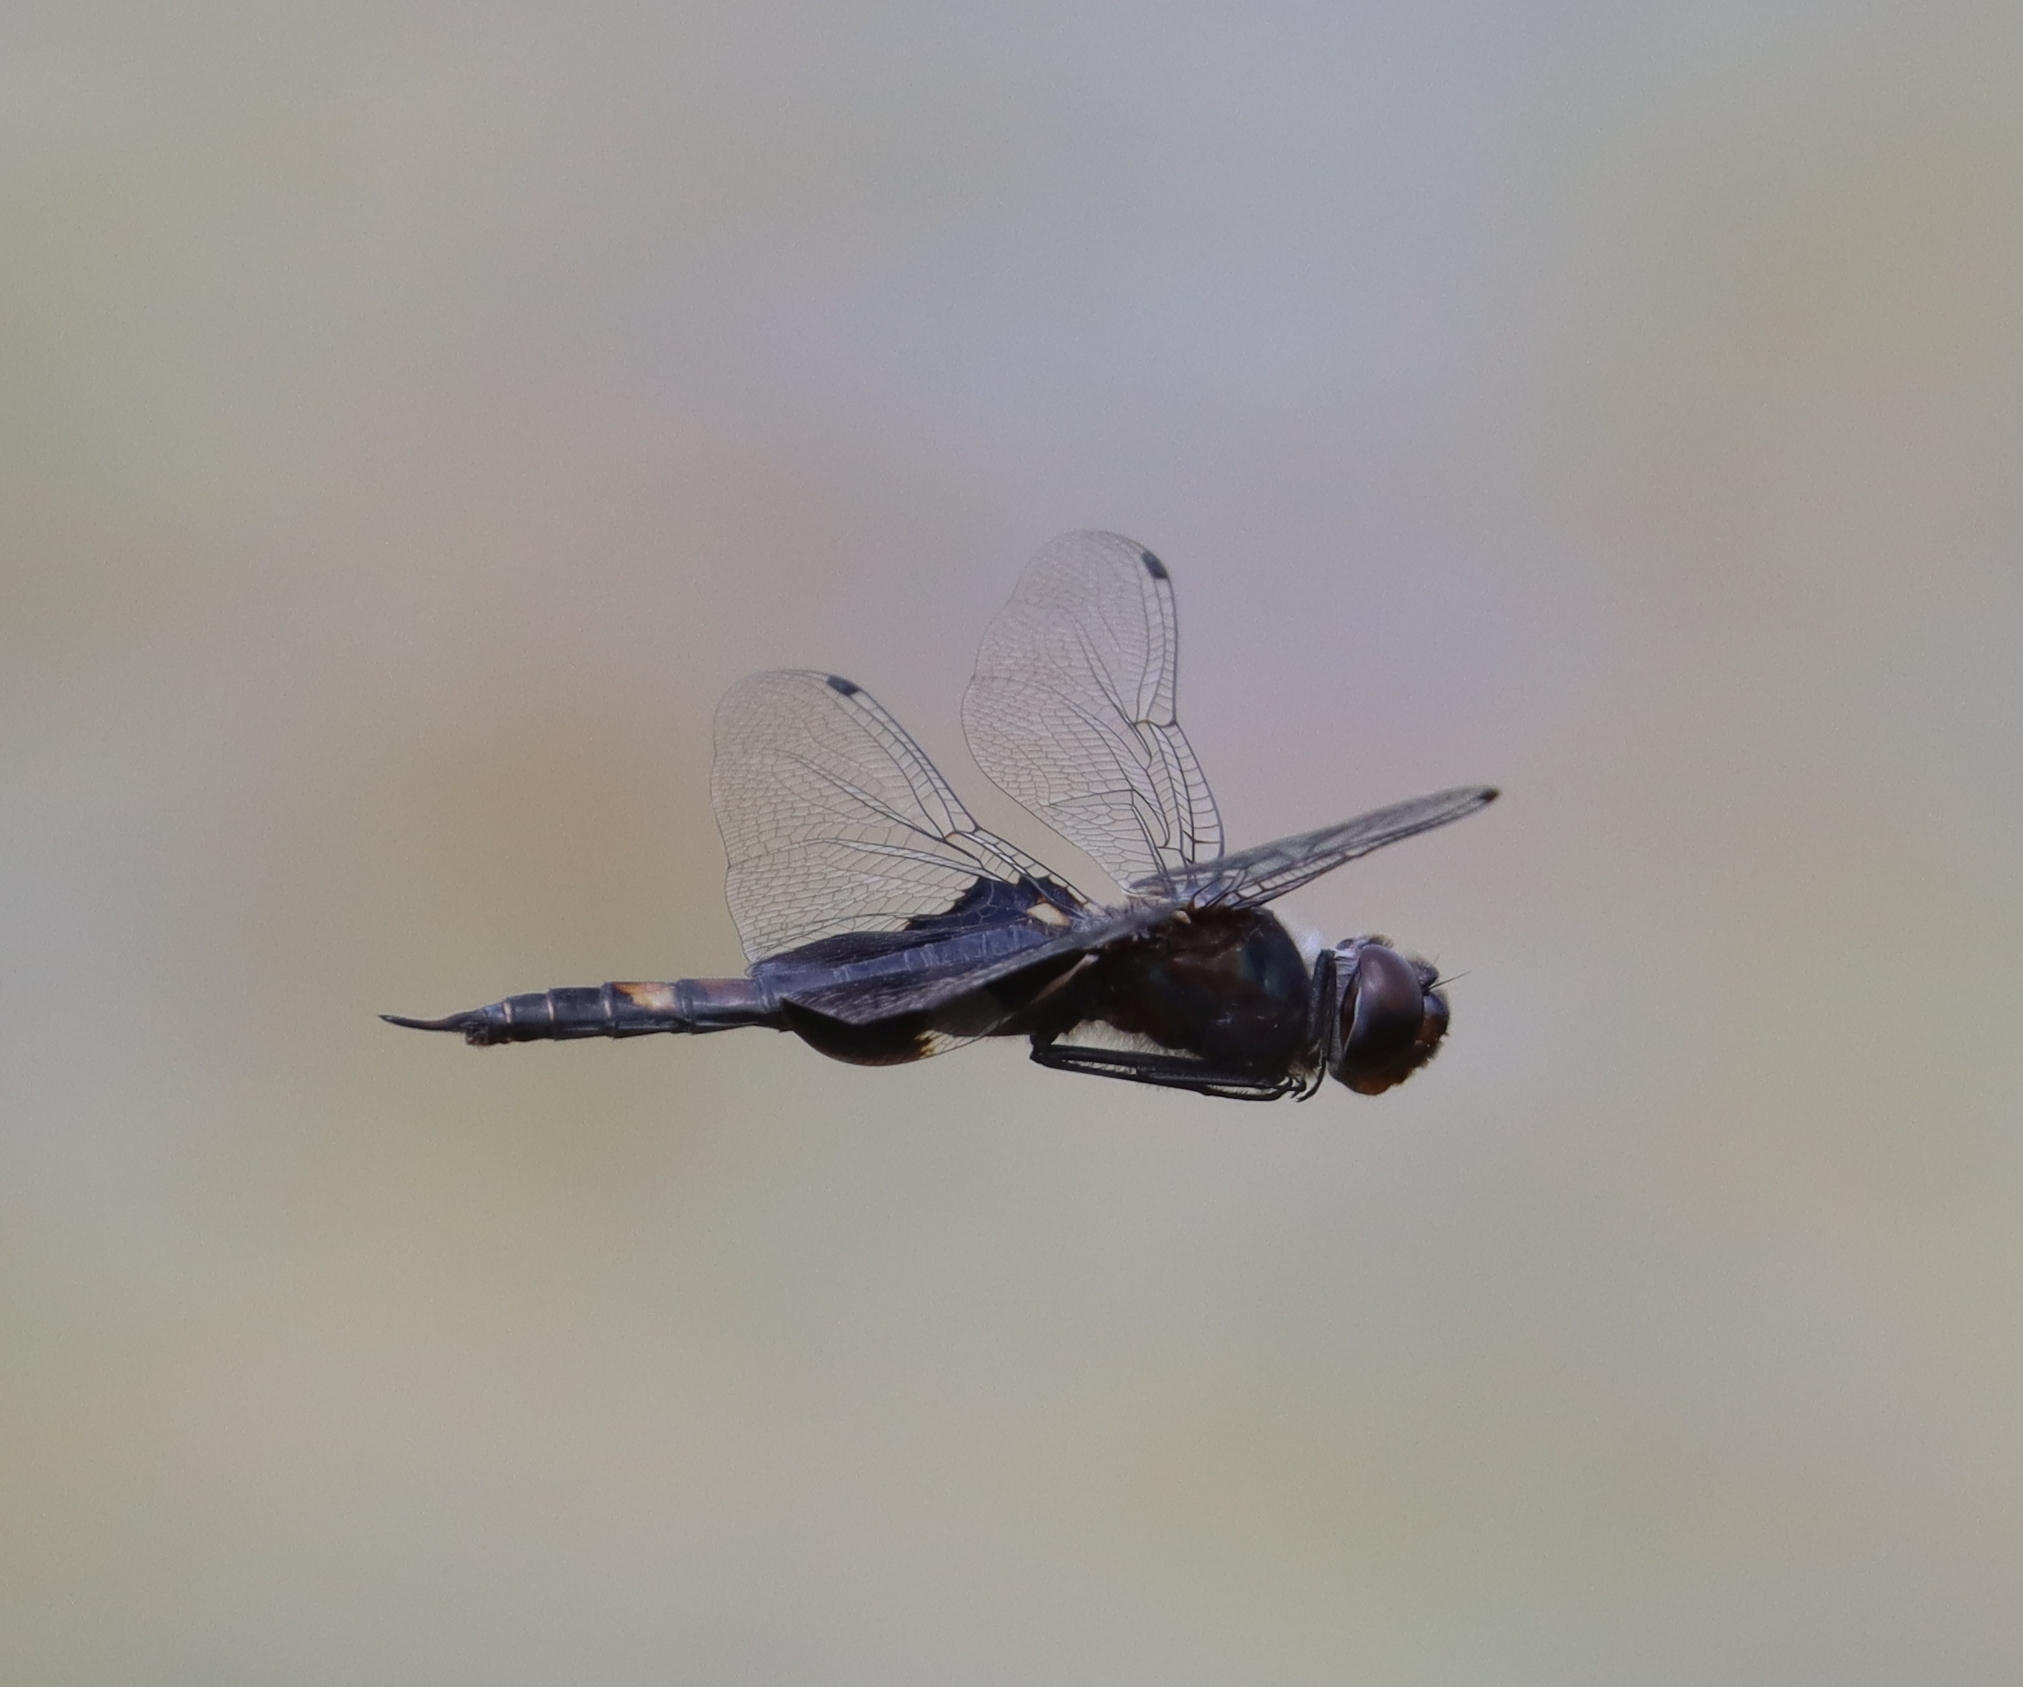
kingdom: Animalia
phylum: Arthropoda
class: Insecta
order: Odonata
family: Libellulidae
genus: Tramea
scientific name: Tramea lacerata
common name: Black saddlebags
